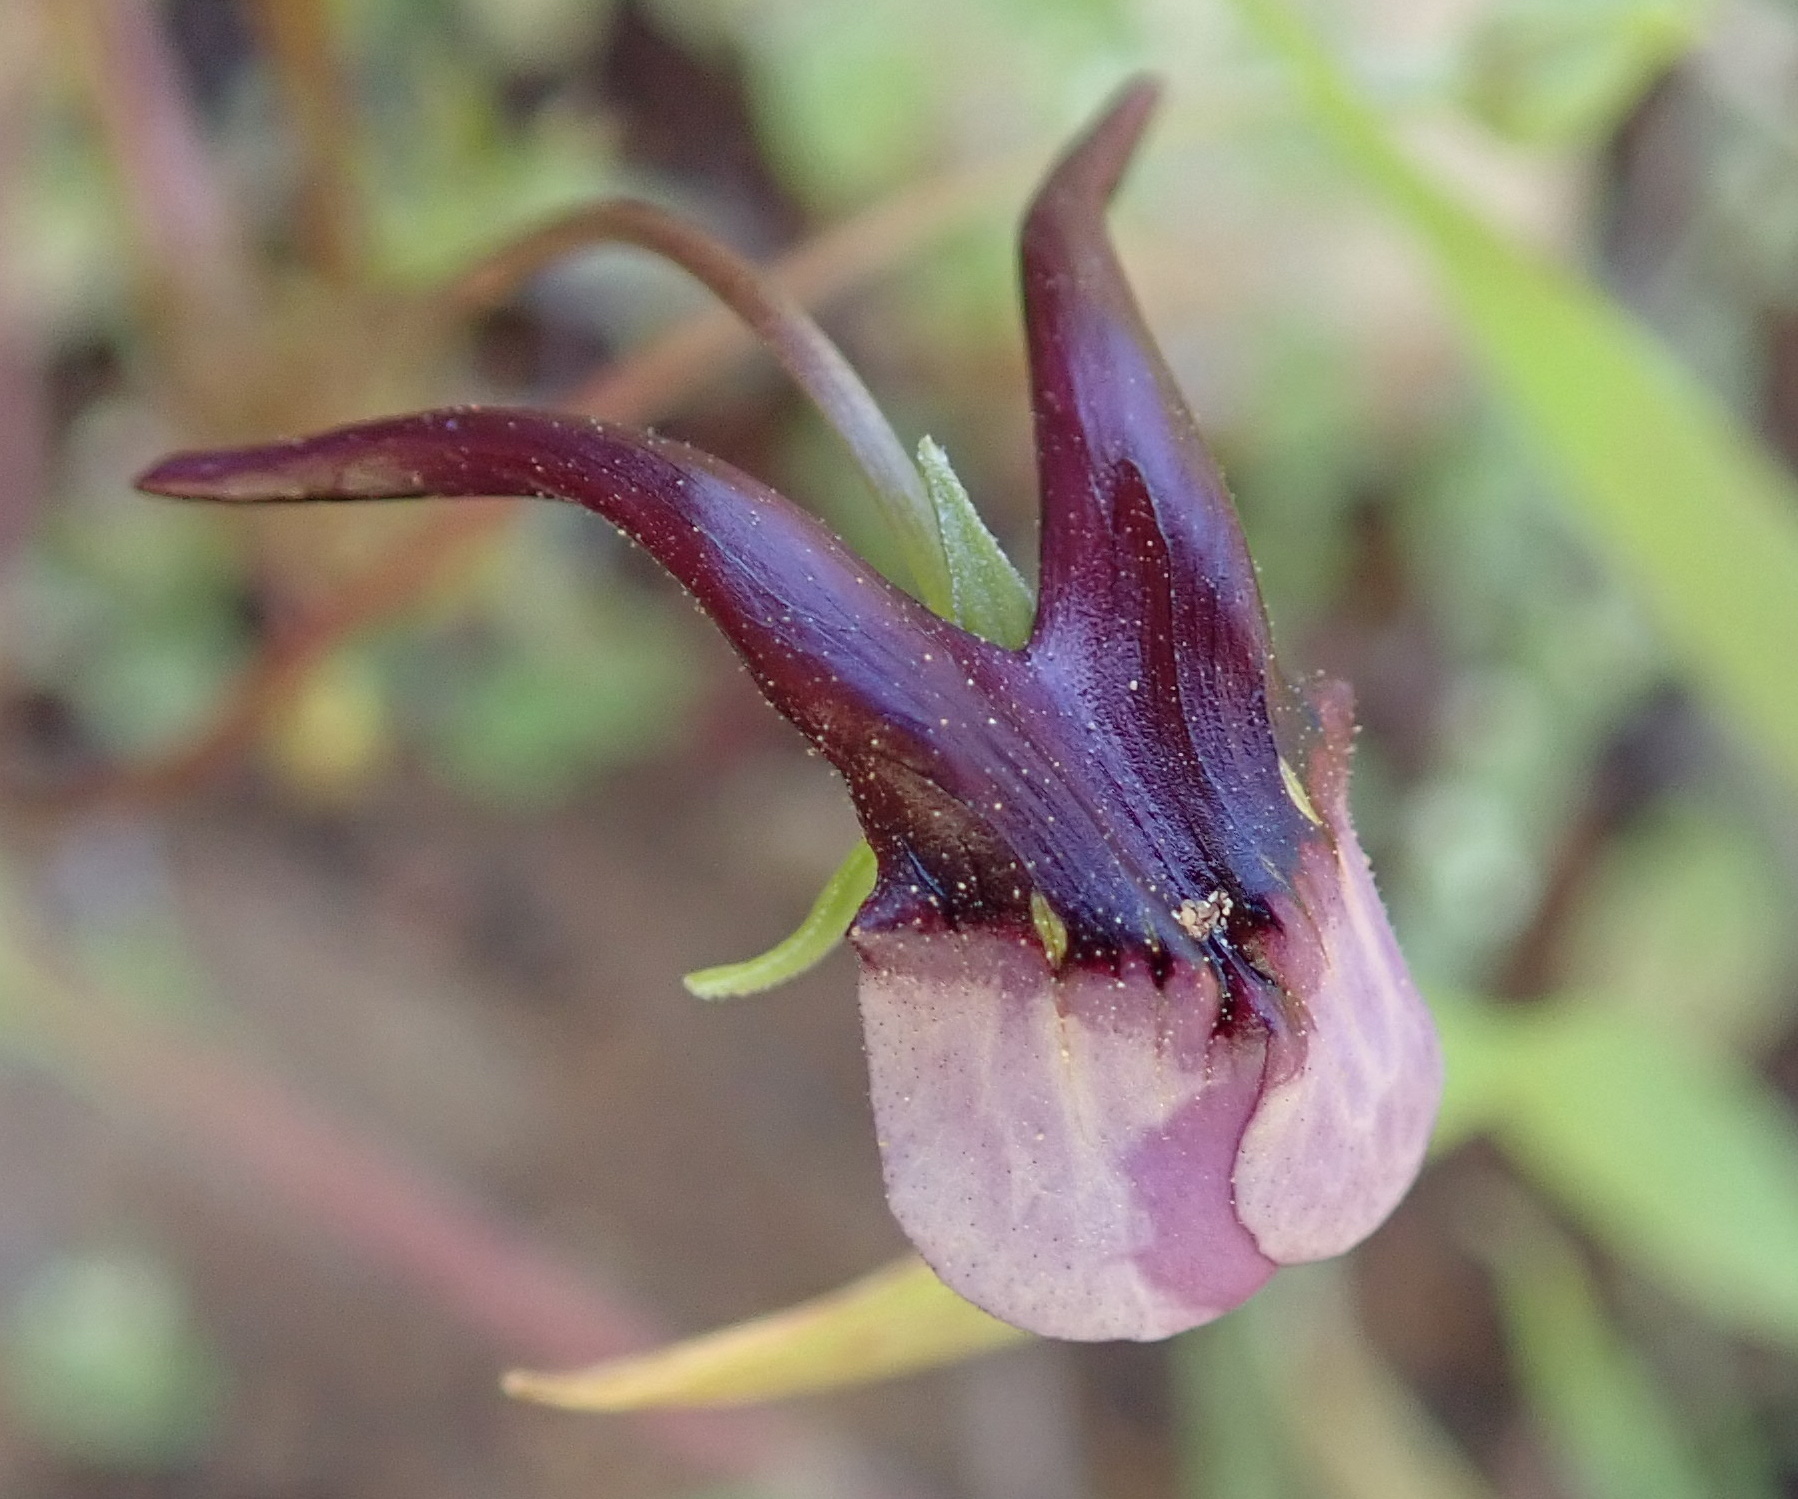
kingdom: Plantae
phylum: Tracheophyta
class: Magnoliopsida
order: Lamiales
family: Scrophulariaceae
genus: Diascia
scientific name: Diascia macrophylla
